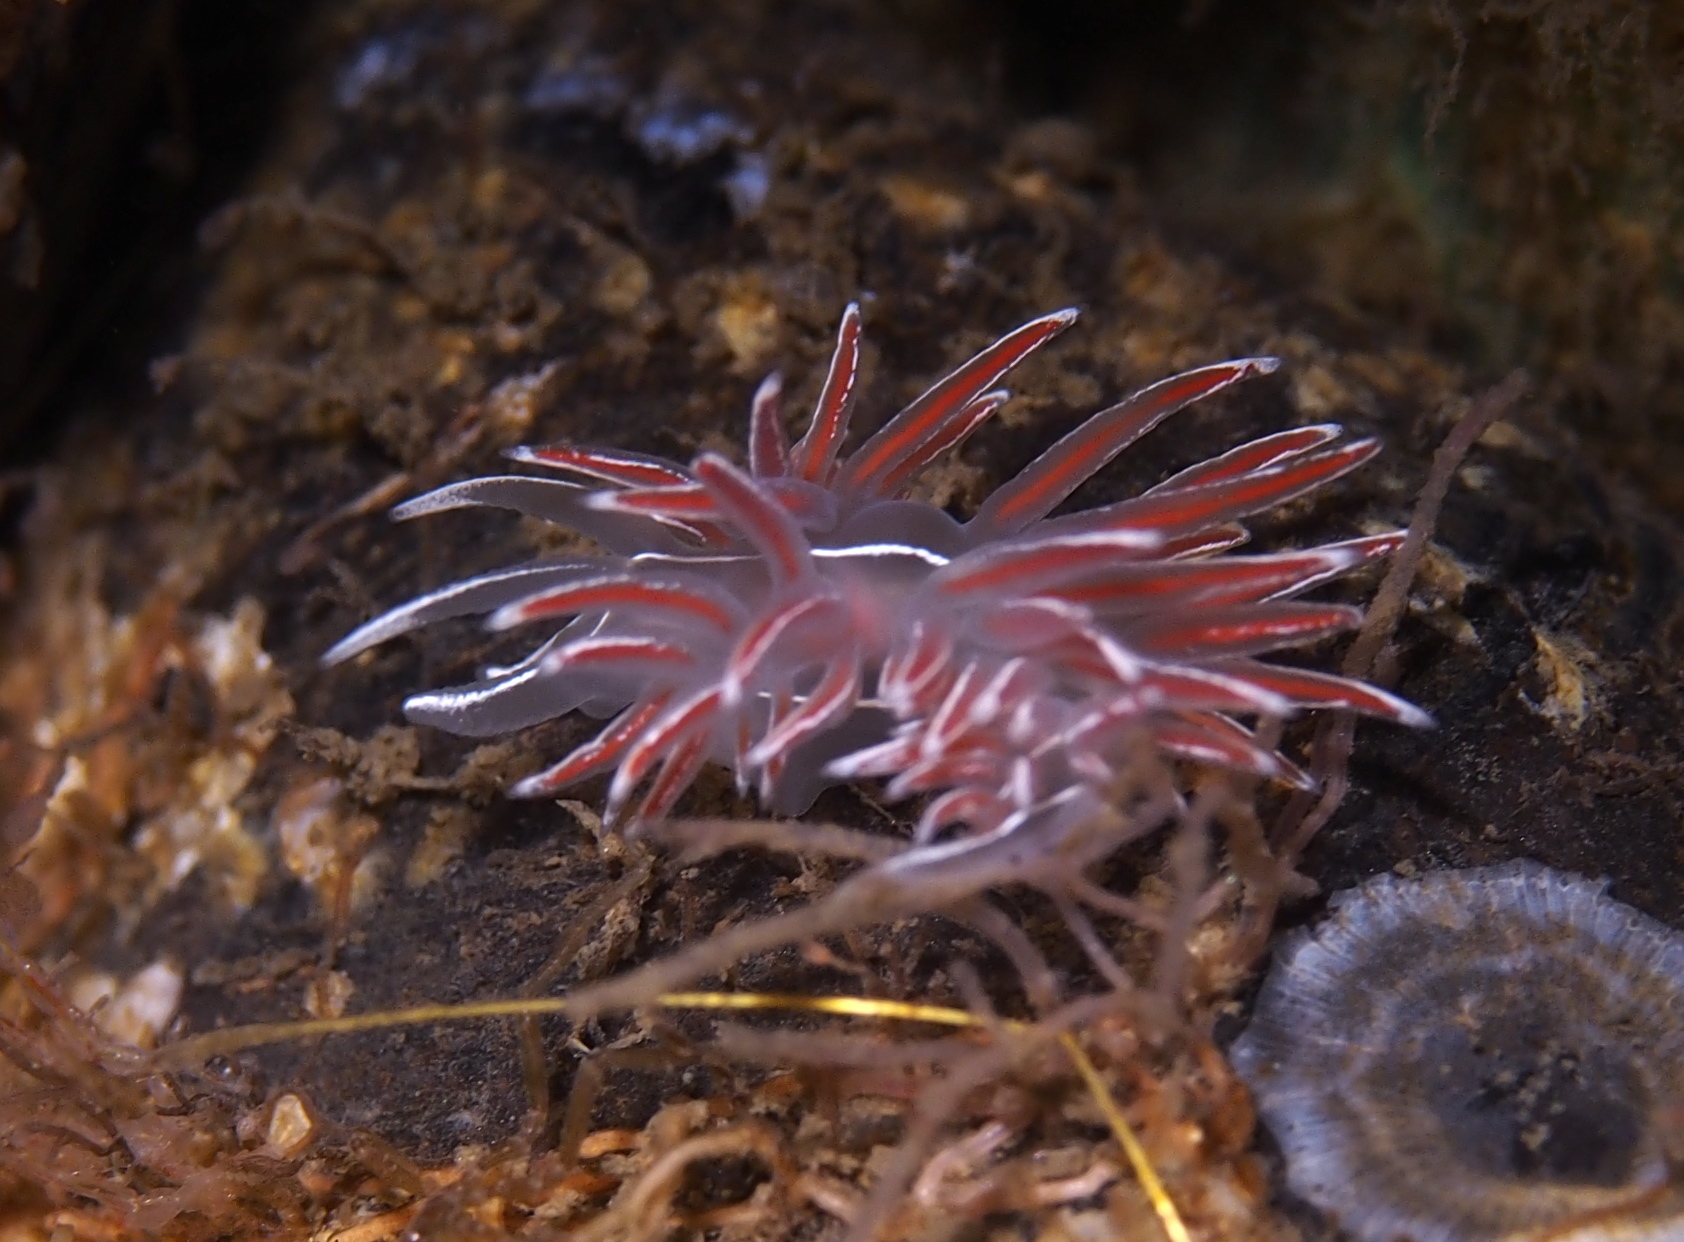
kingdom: Animalia
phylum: Mollusca
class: Gastropoda
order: Nudibranchia
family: Coryphellidae
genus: Coryphella
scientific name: Coryphella lineata
